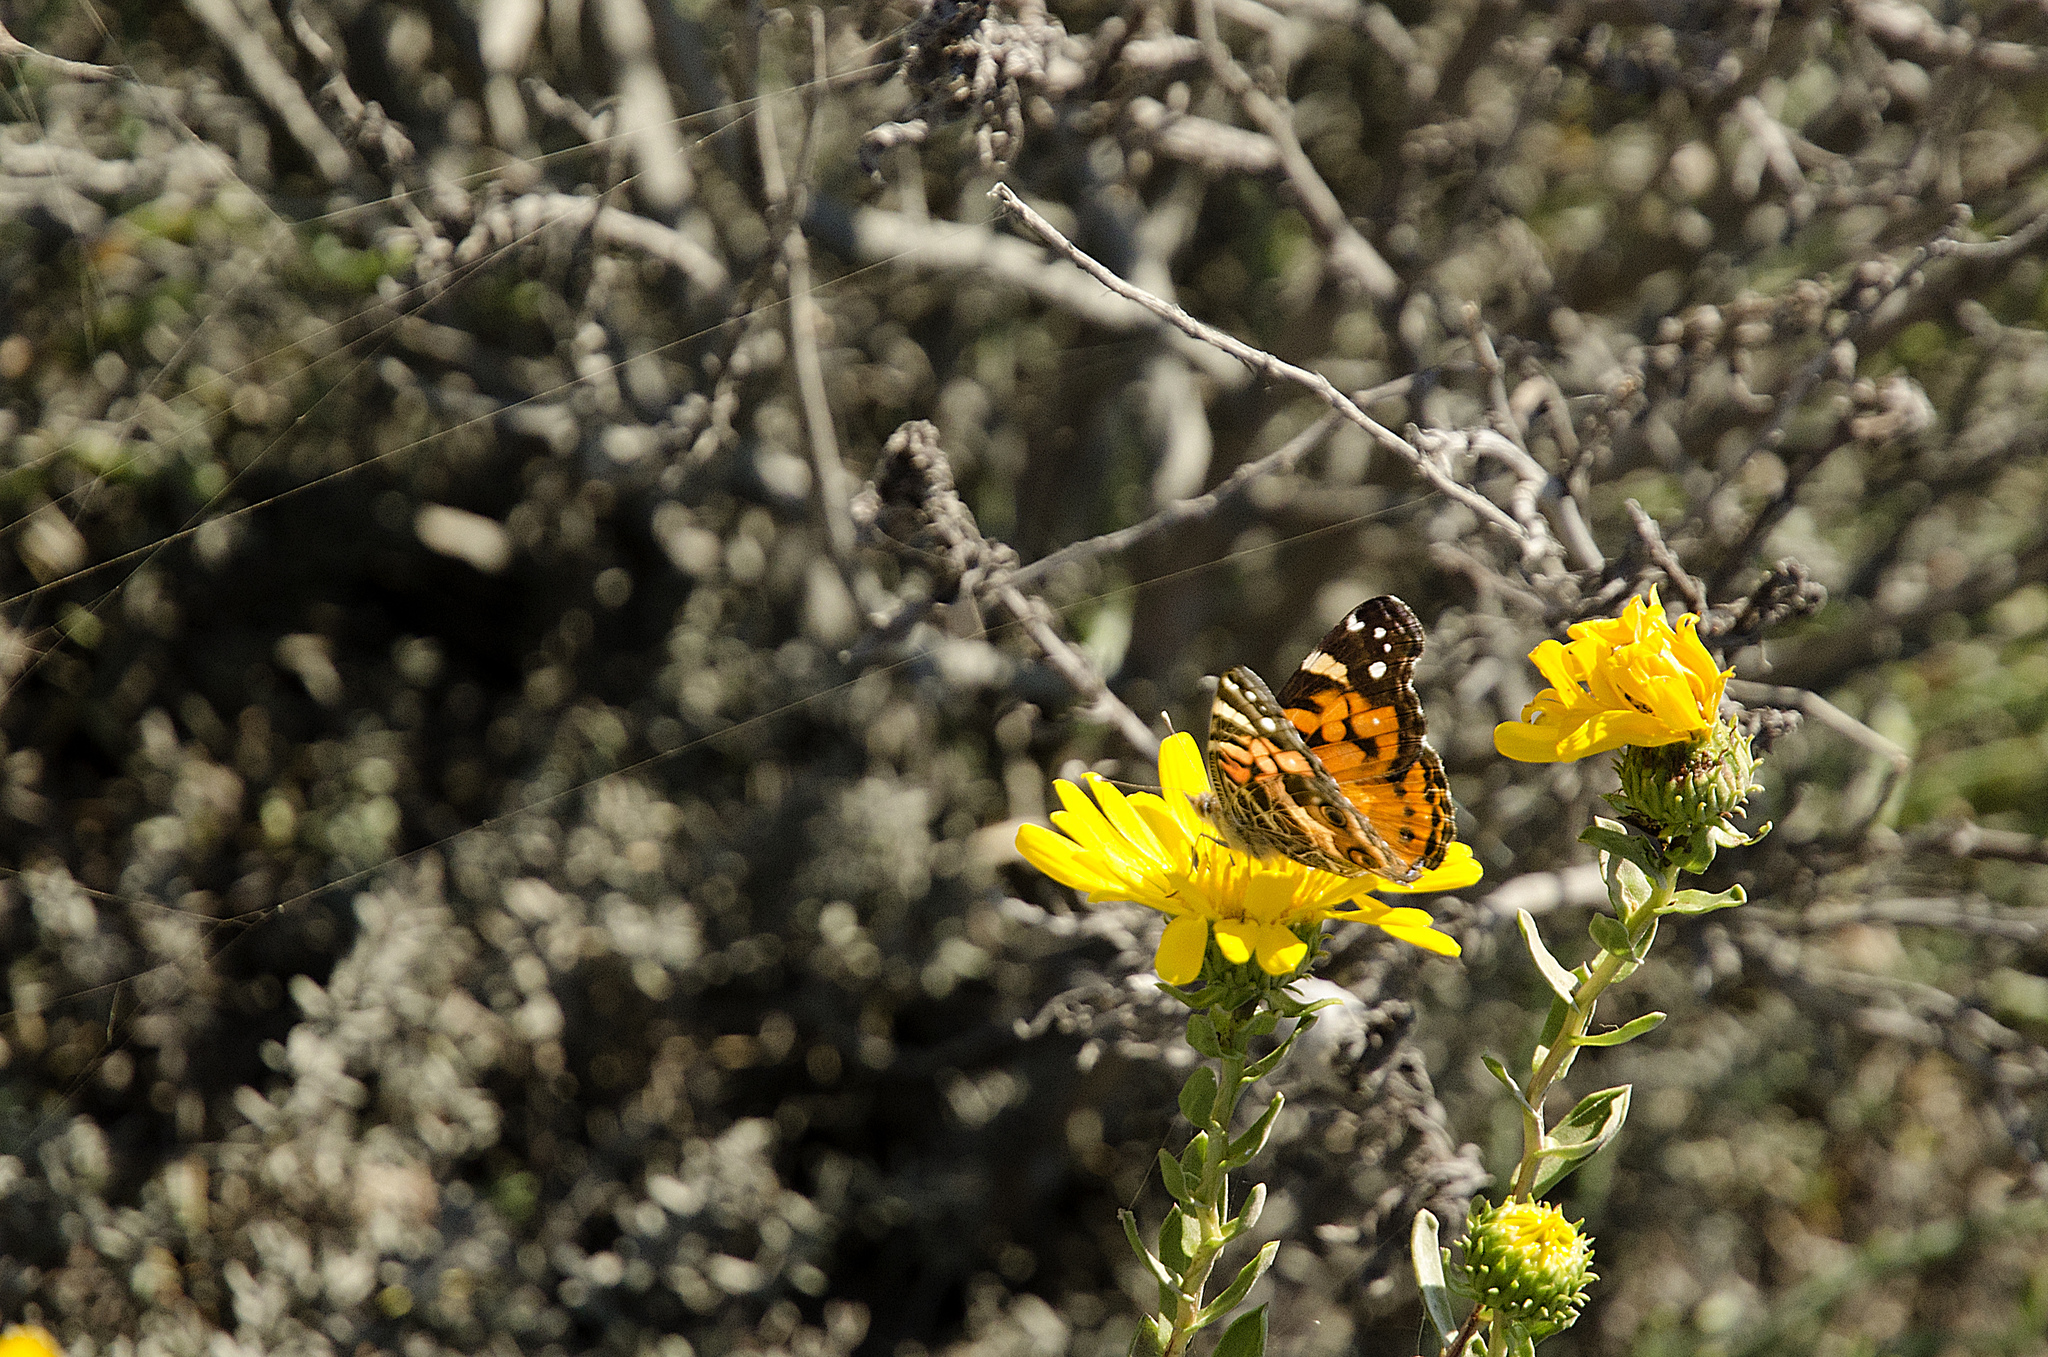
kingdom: Animalia
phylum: Arthropoda
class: Insecta
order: Lepidoptera
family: Nymphalidae
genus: Vanessa
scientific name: Vanessa virginiensis
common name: American lady
